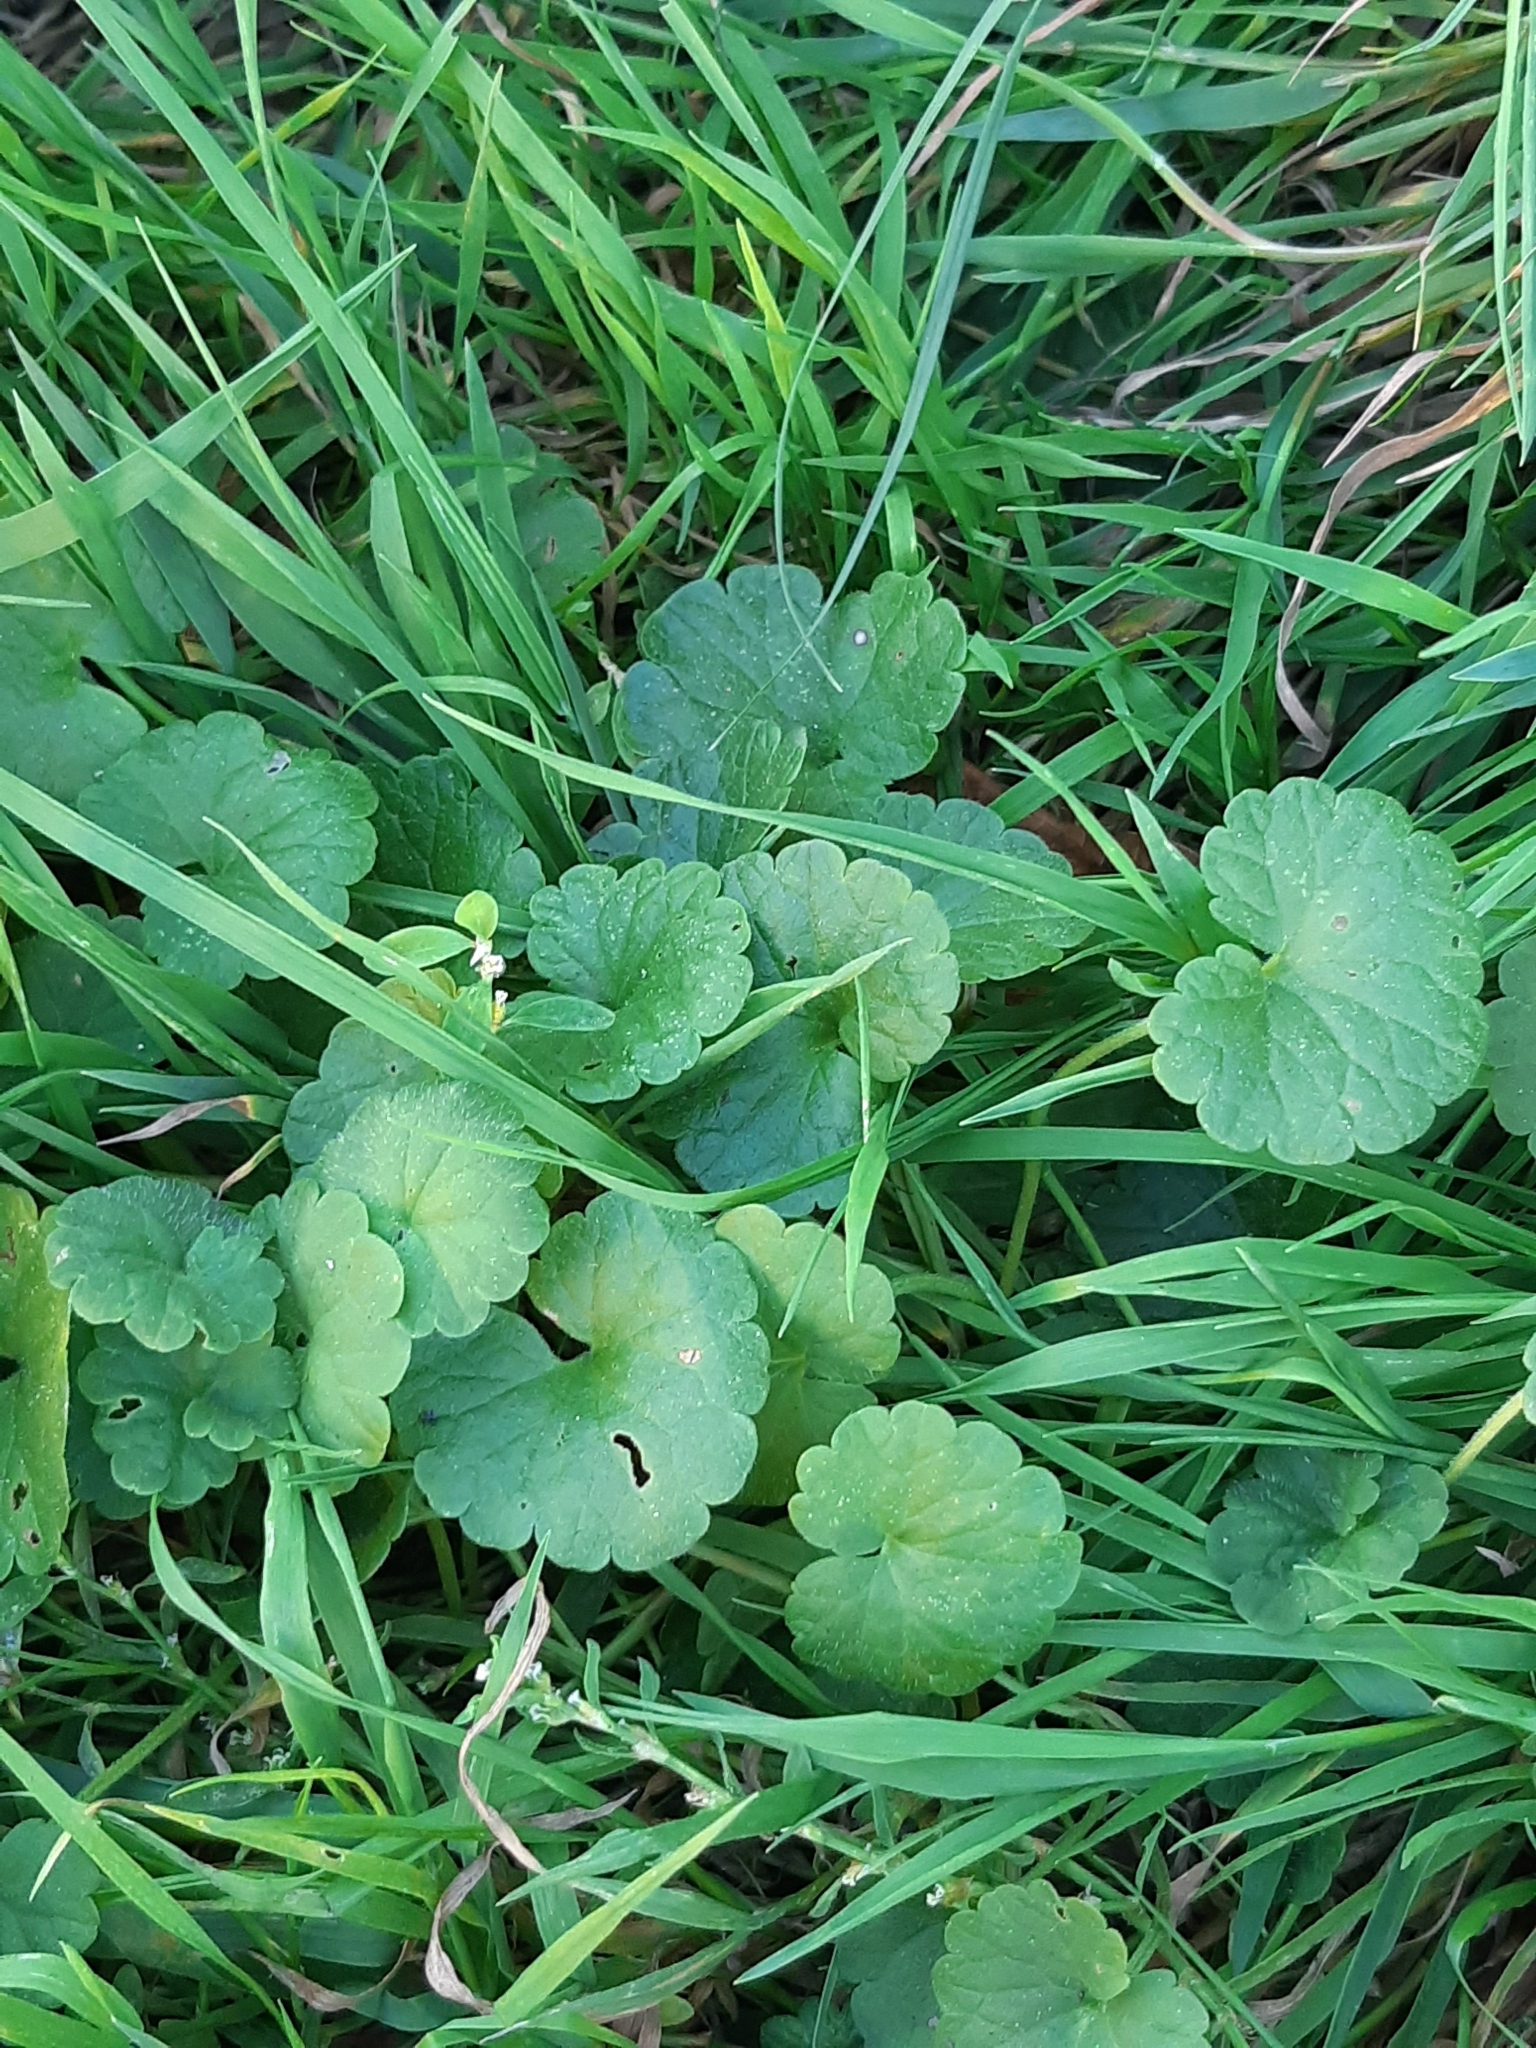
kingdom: Plantae
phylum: Tracheophyta
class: Magnoliopsida
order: Lamiales
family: Lamiaceae
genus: Glechoma
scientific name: Glechoma hederacea
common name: Ground ivy
